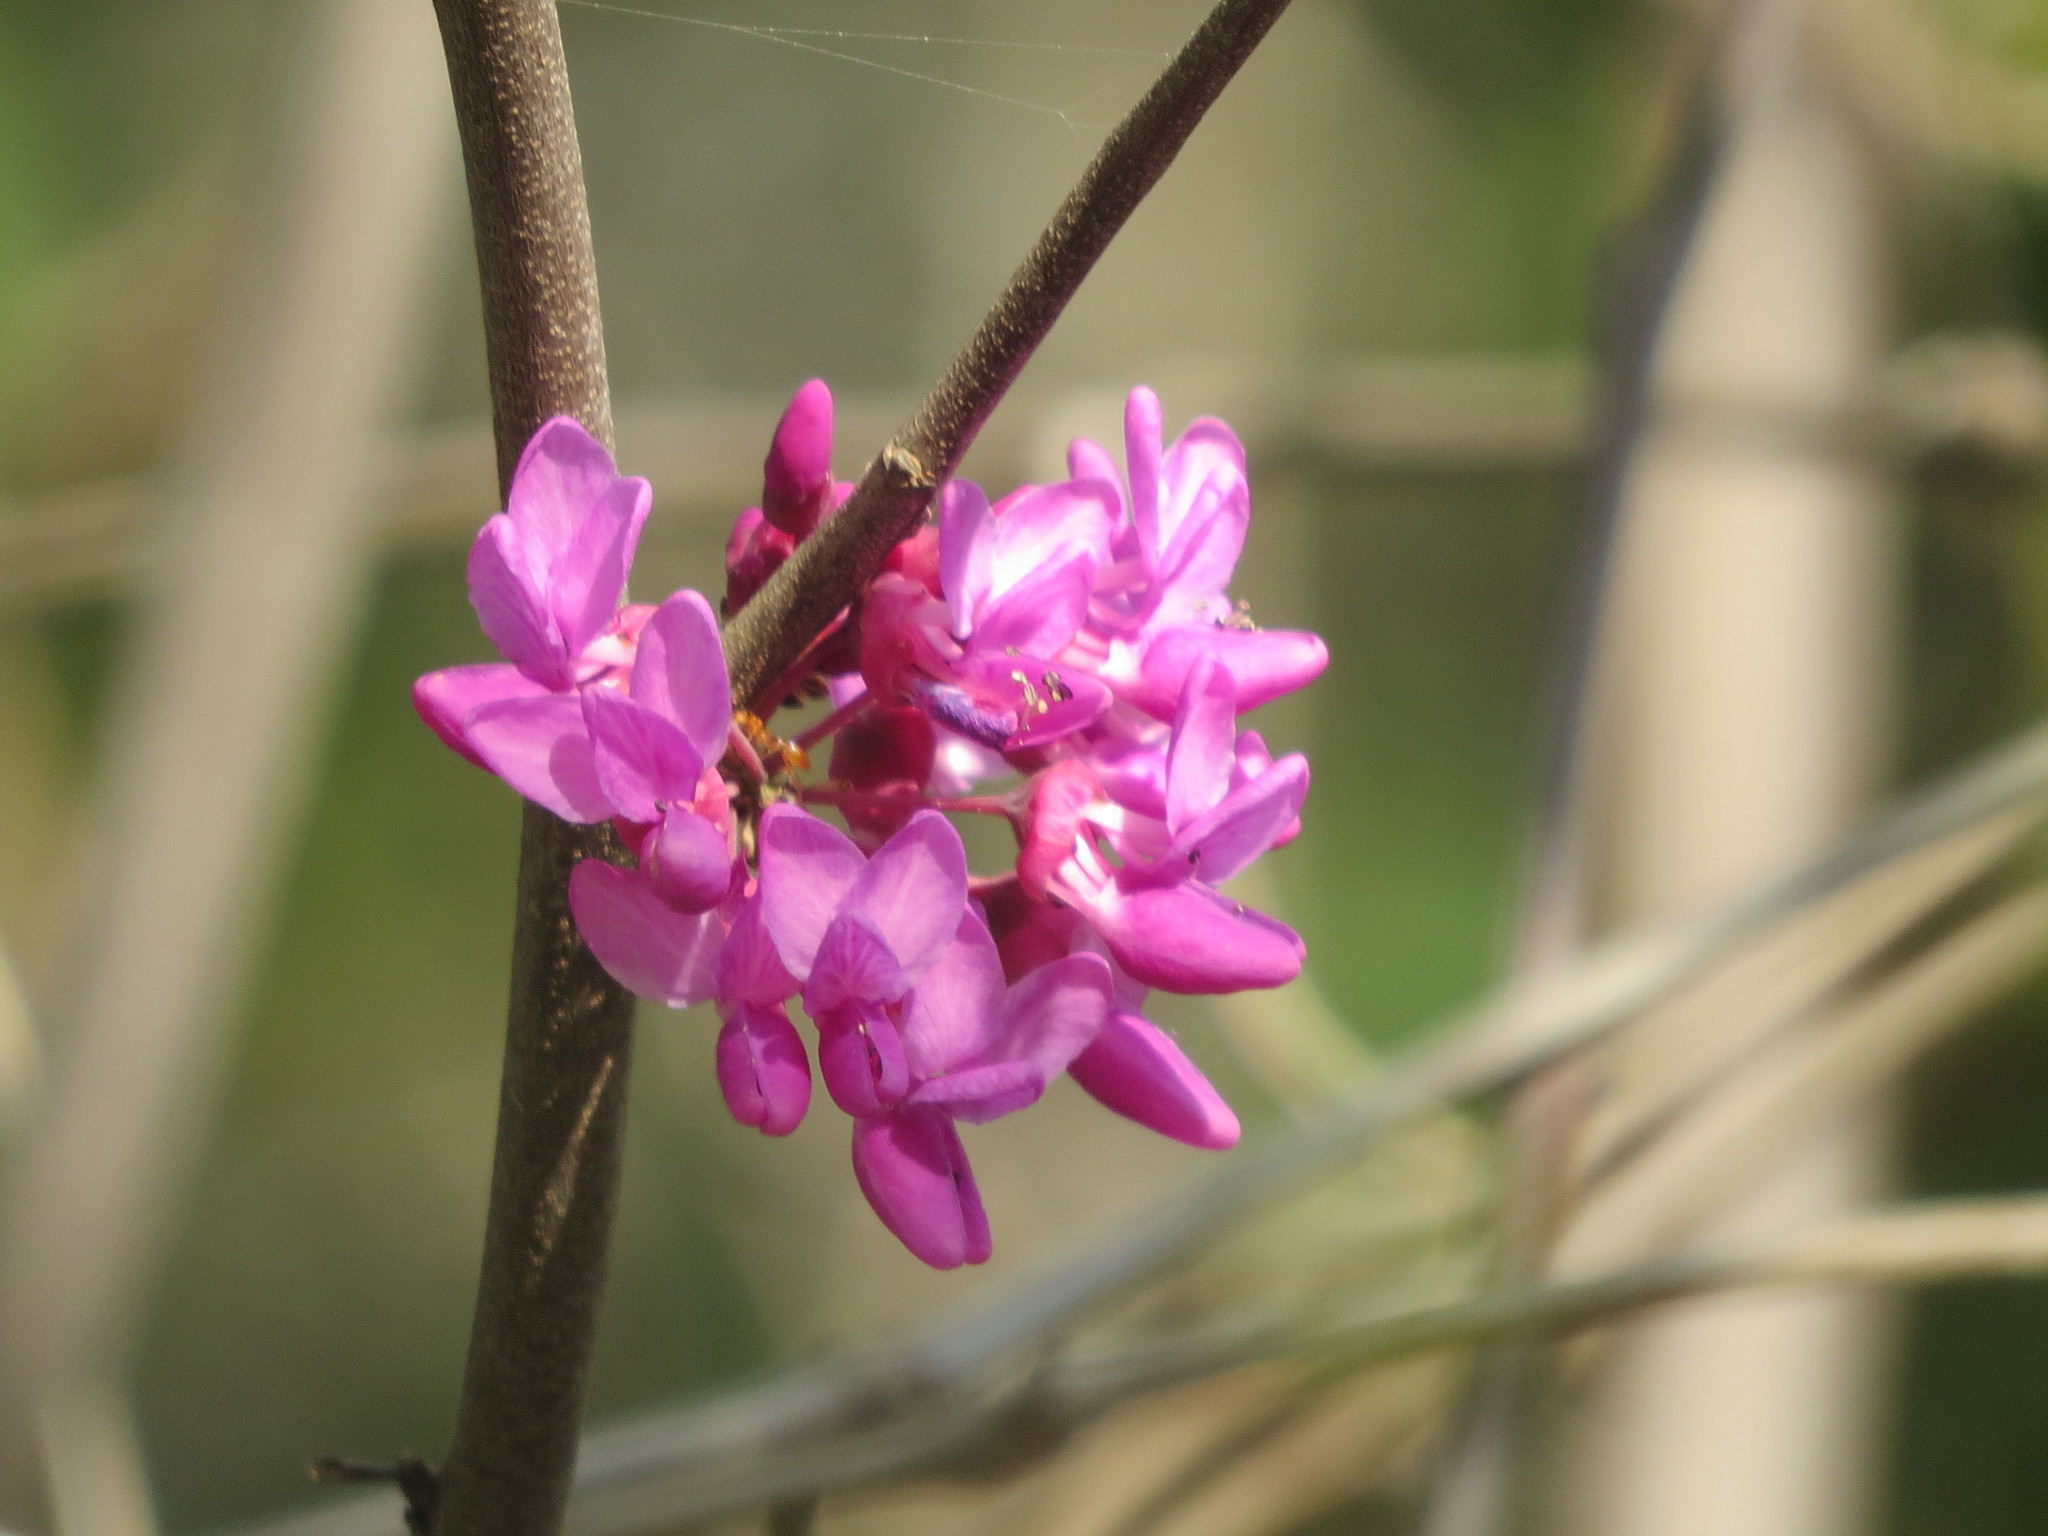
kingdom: Plantae
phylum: Tracheophyta
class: Magnoliopsida
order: Fabales
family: Fabaceae
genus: Cercis
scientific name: Cercis canadensis
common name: Eastern redbud
